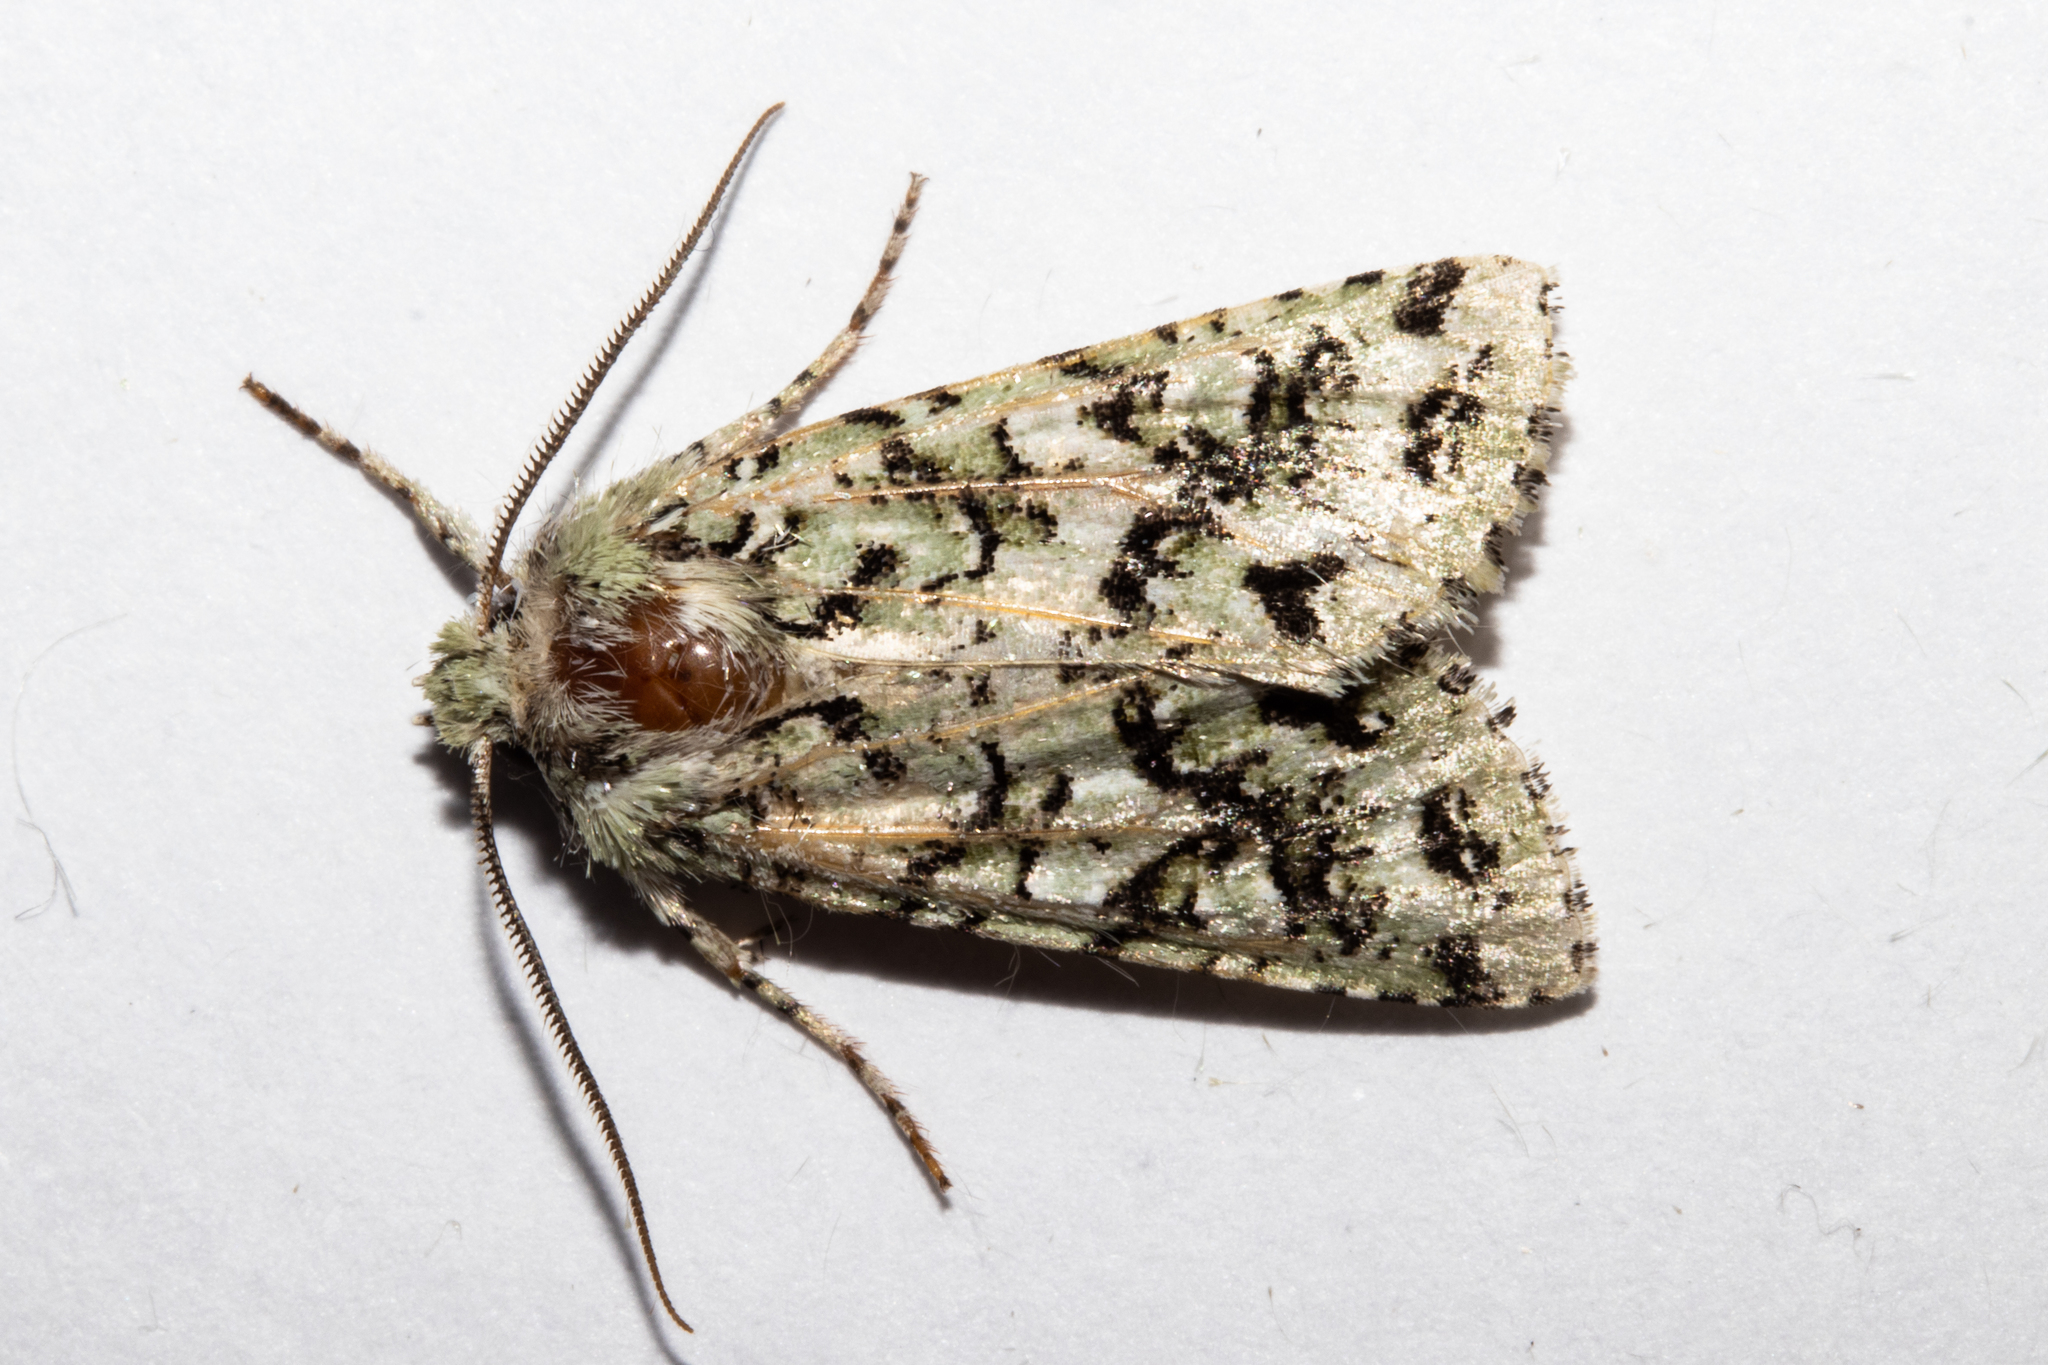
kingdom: Animalia
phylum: Arthropoda
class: Insecta
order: Lepidoptera
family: Noctuidae
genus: Meterana
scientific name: Meterana
